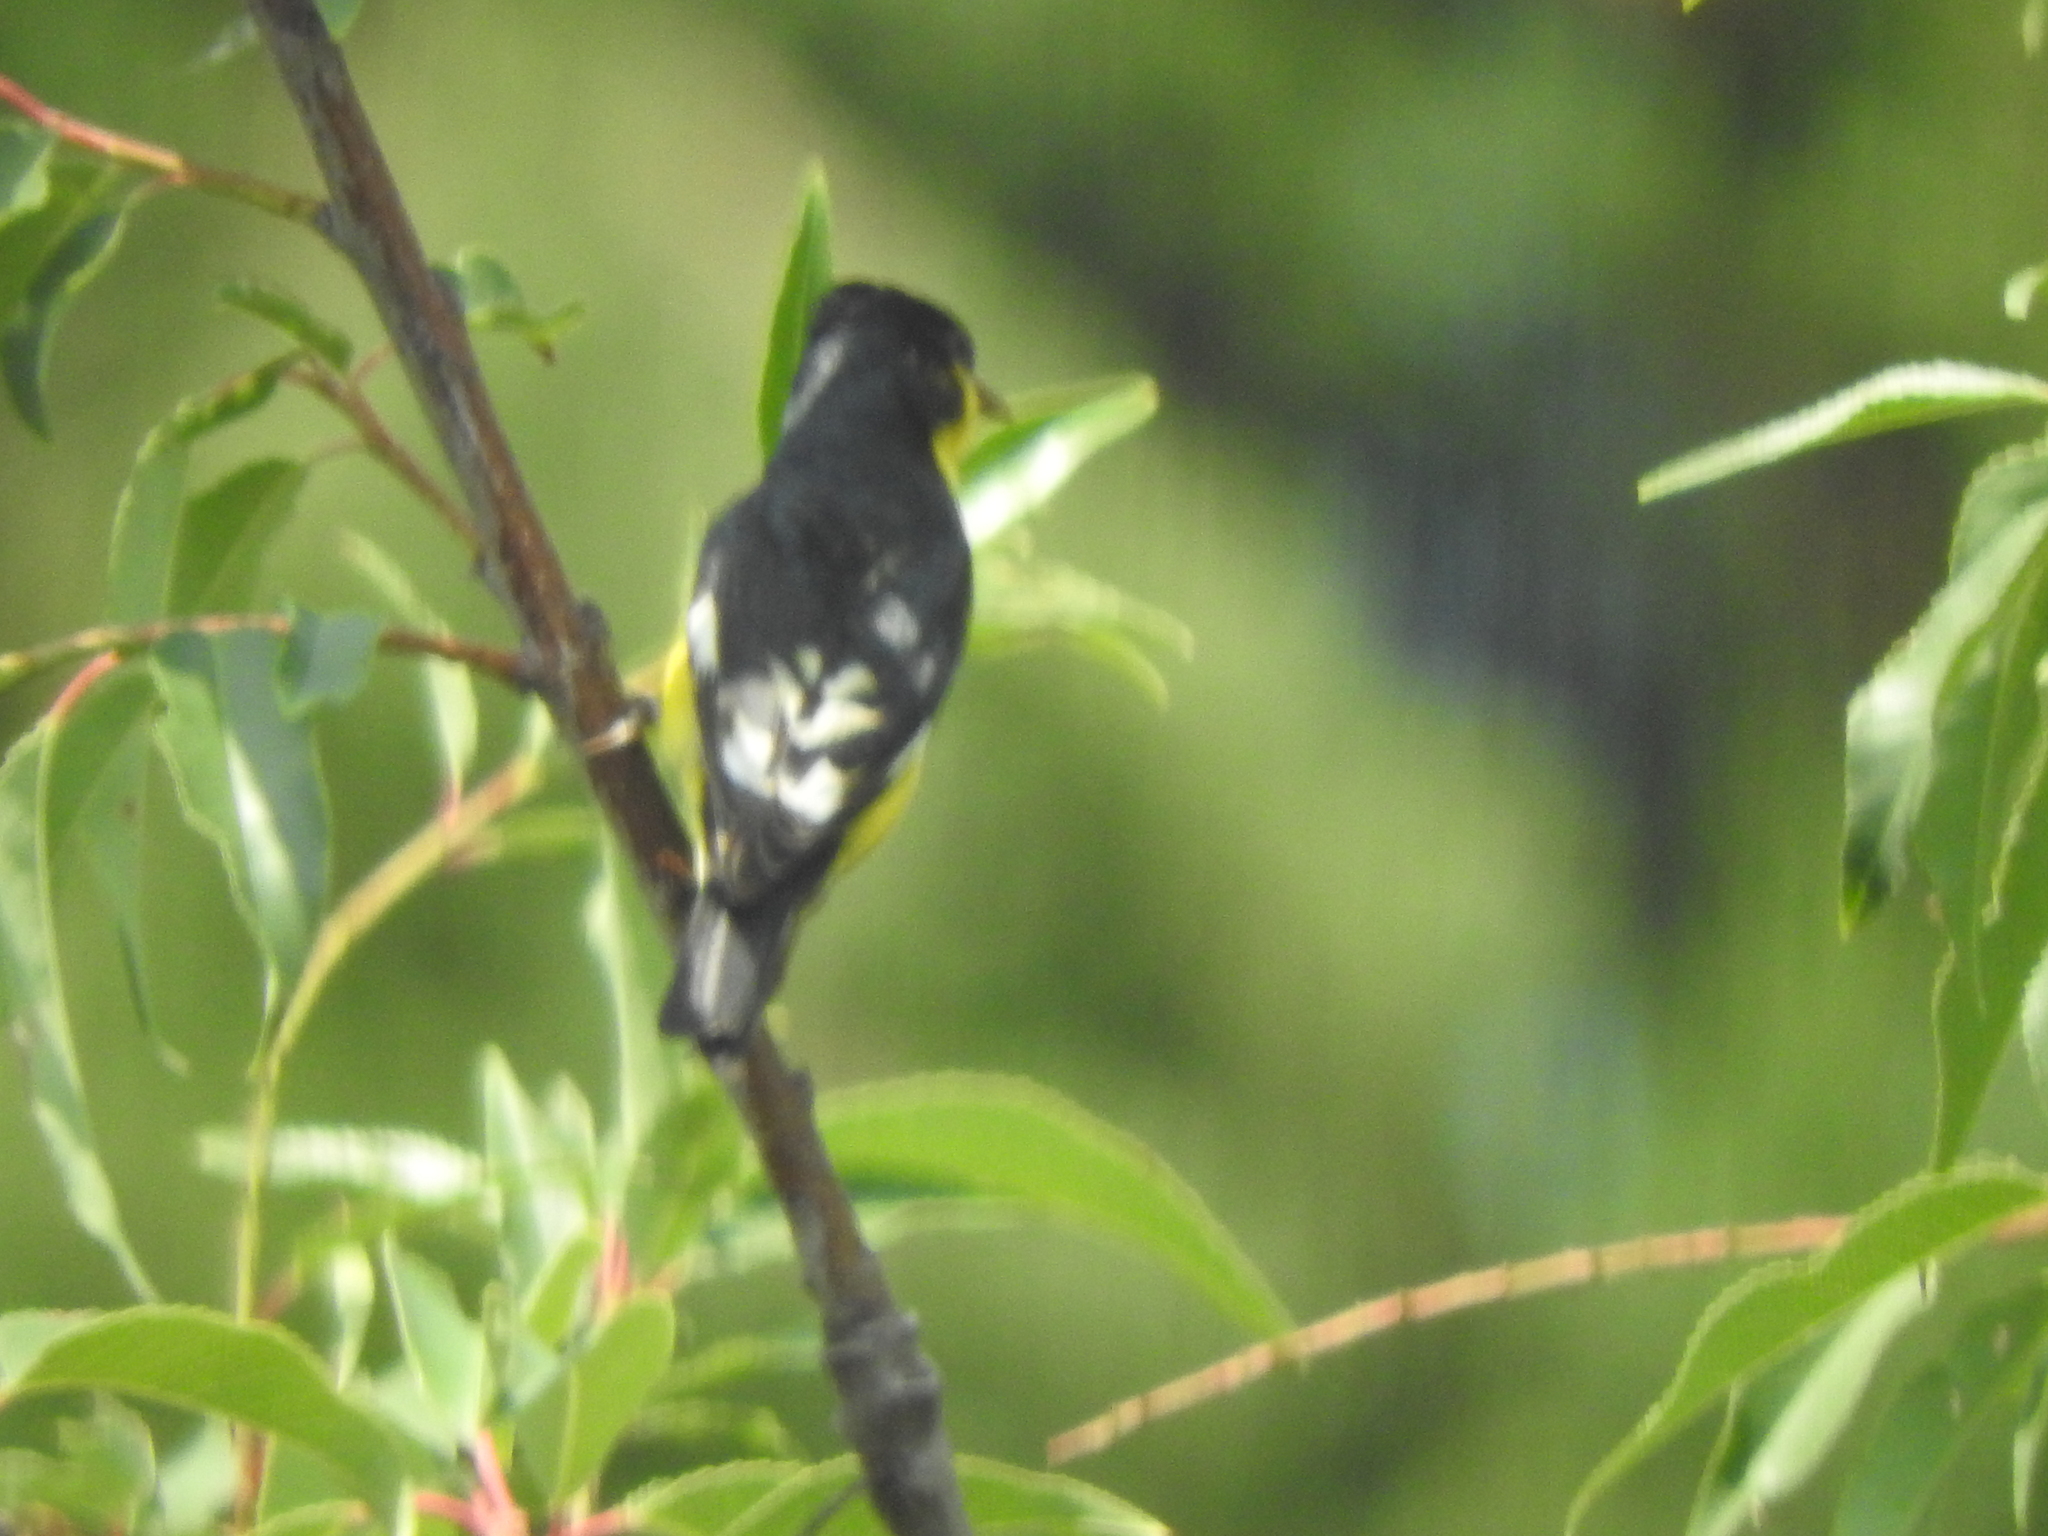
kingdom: Animalia
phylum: Chordata
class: Aves
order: Passeriformes
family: Fringillidae
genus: Spinus
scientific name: Spinus psaltria
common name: Lesser goldfinch
